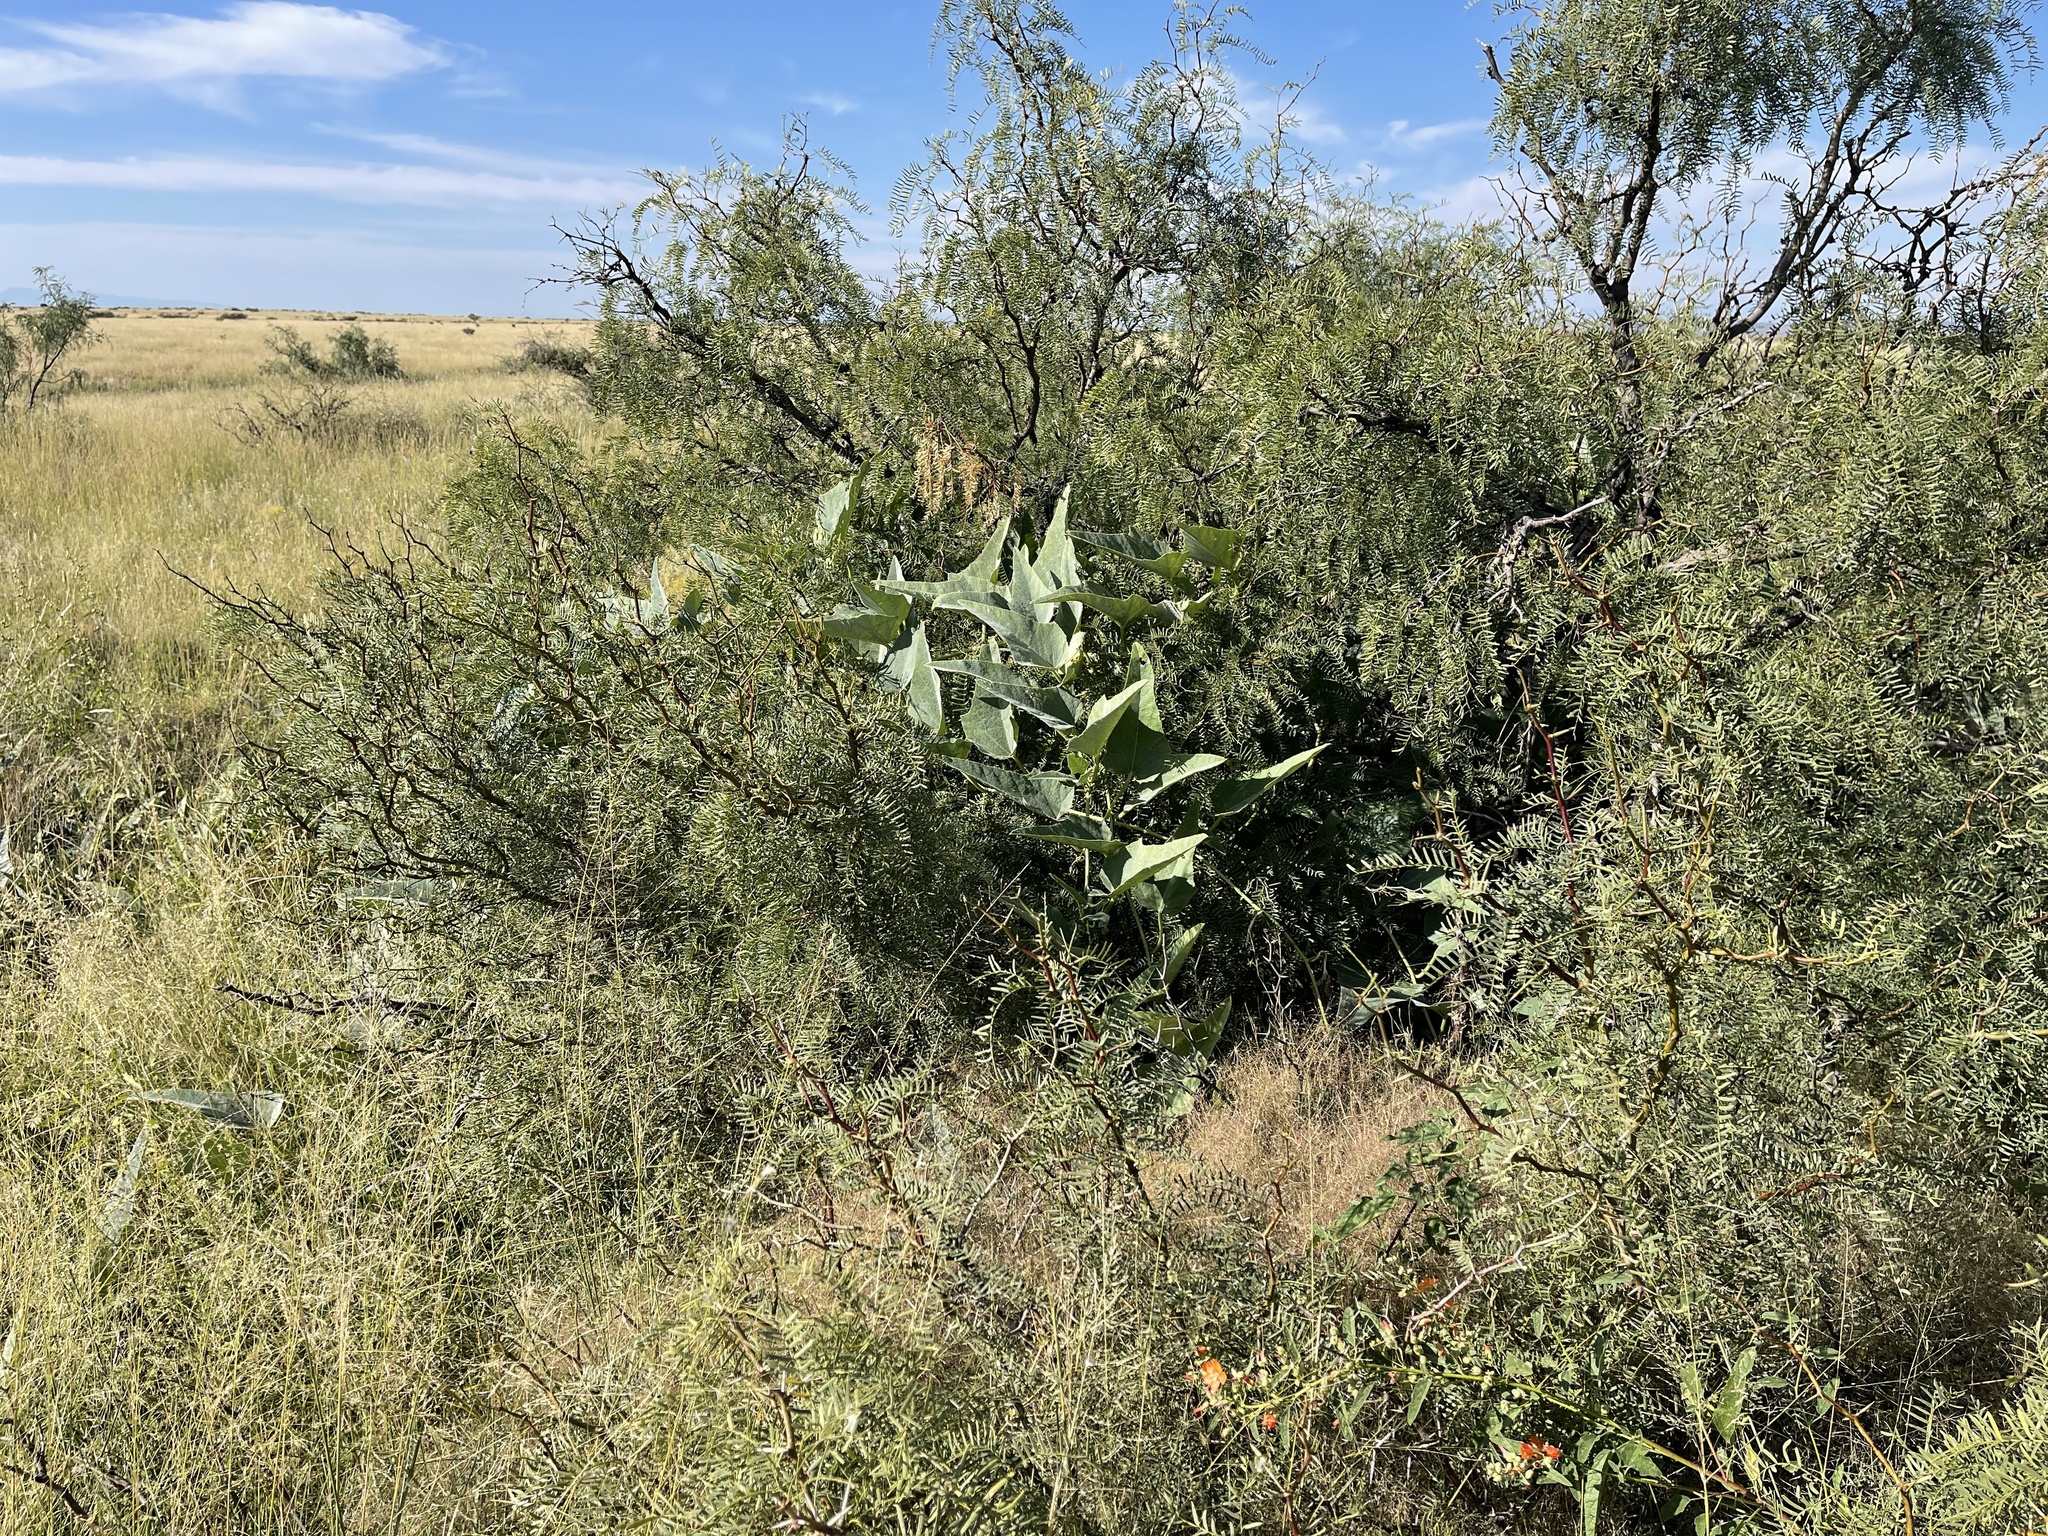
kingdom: Plantae
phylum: Tracheophyta
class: Magnoliopsida
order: Cucurbitales
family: Cucurbitaceae
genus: Cucurbita
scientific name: Cucurbita foetidissima
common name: Buffalo gourd
